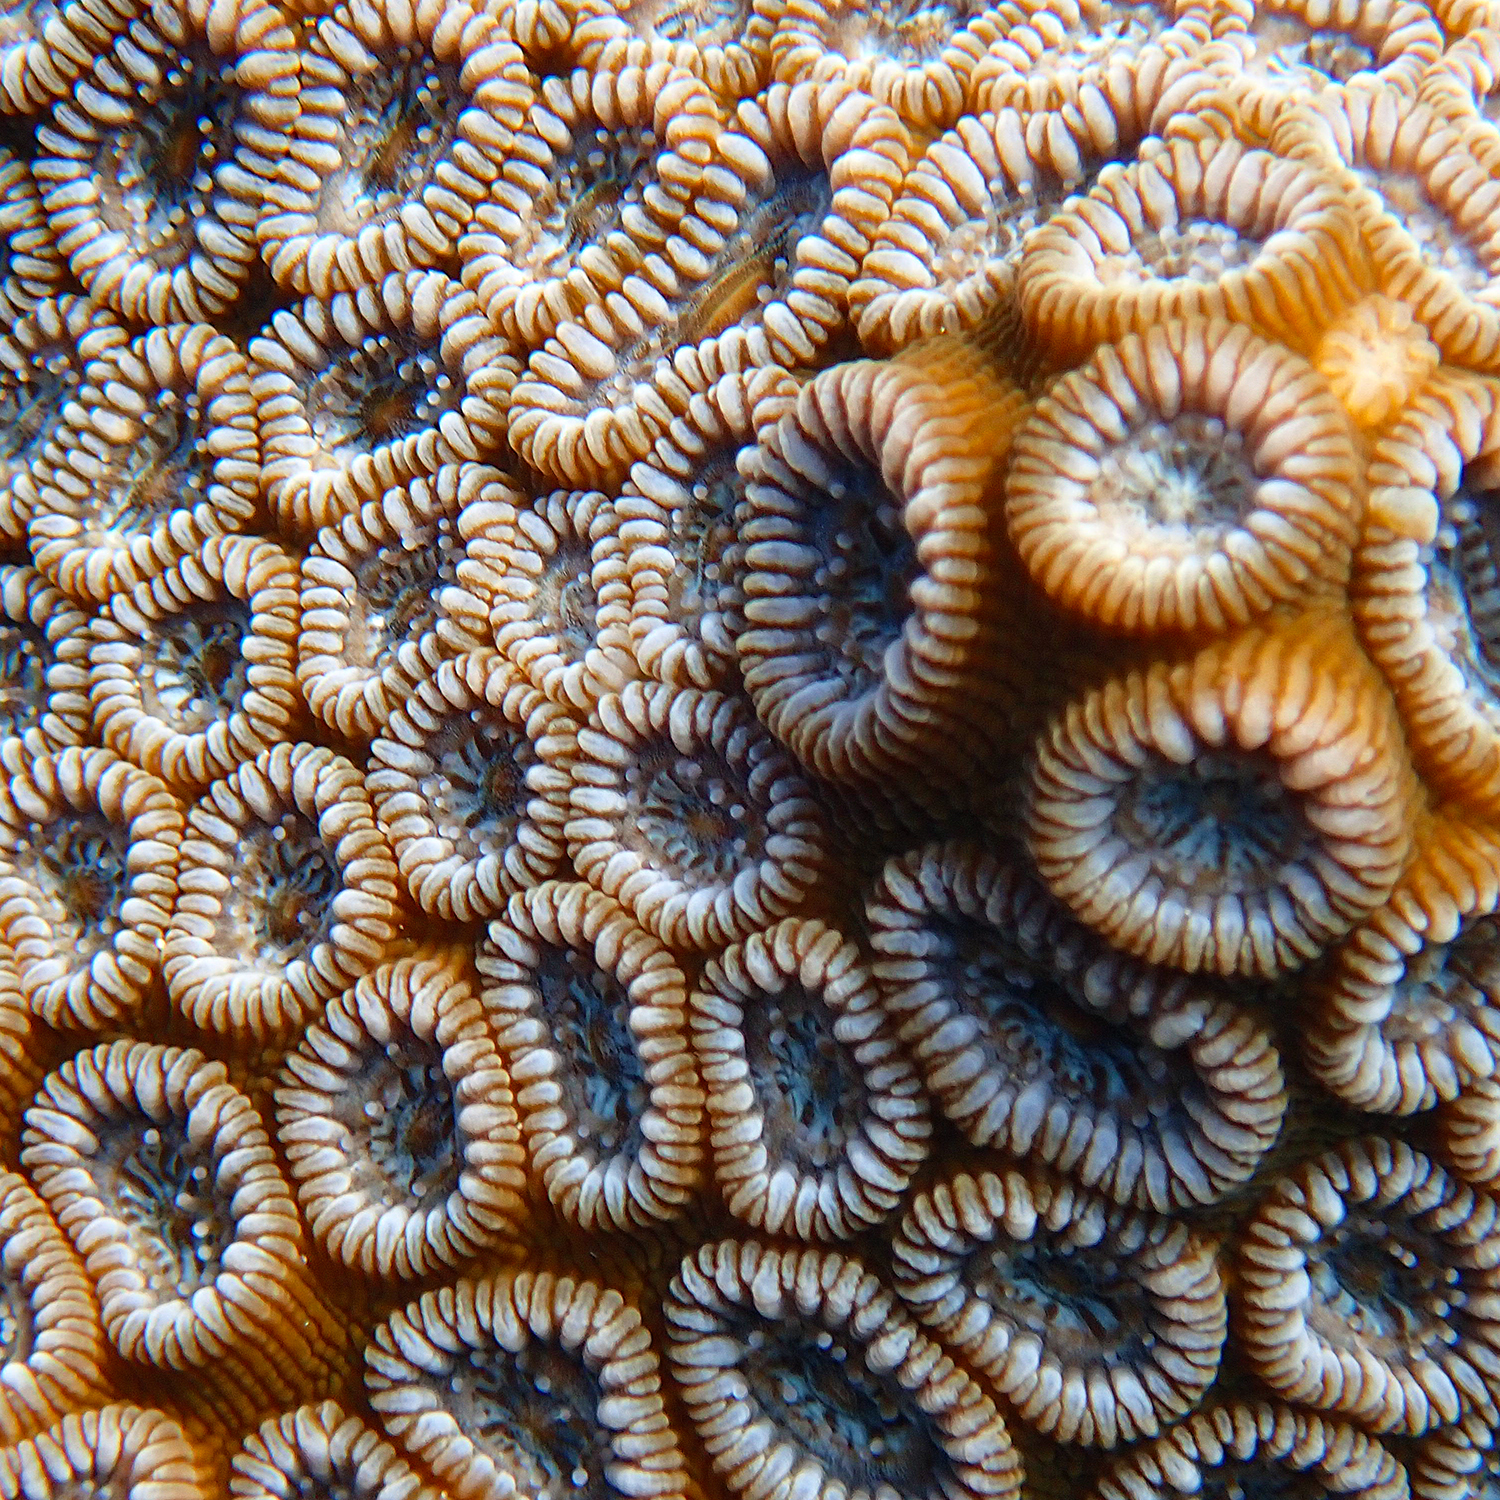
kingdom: Animalia
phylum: Cnidaria
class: Anthozoa
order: Scleractinia
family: Merulinidae
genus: Astrea
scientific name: Astrea curta
